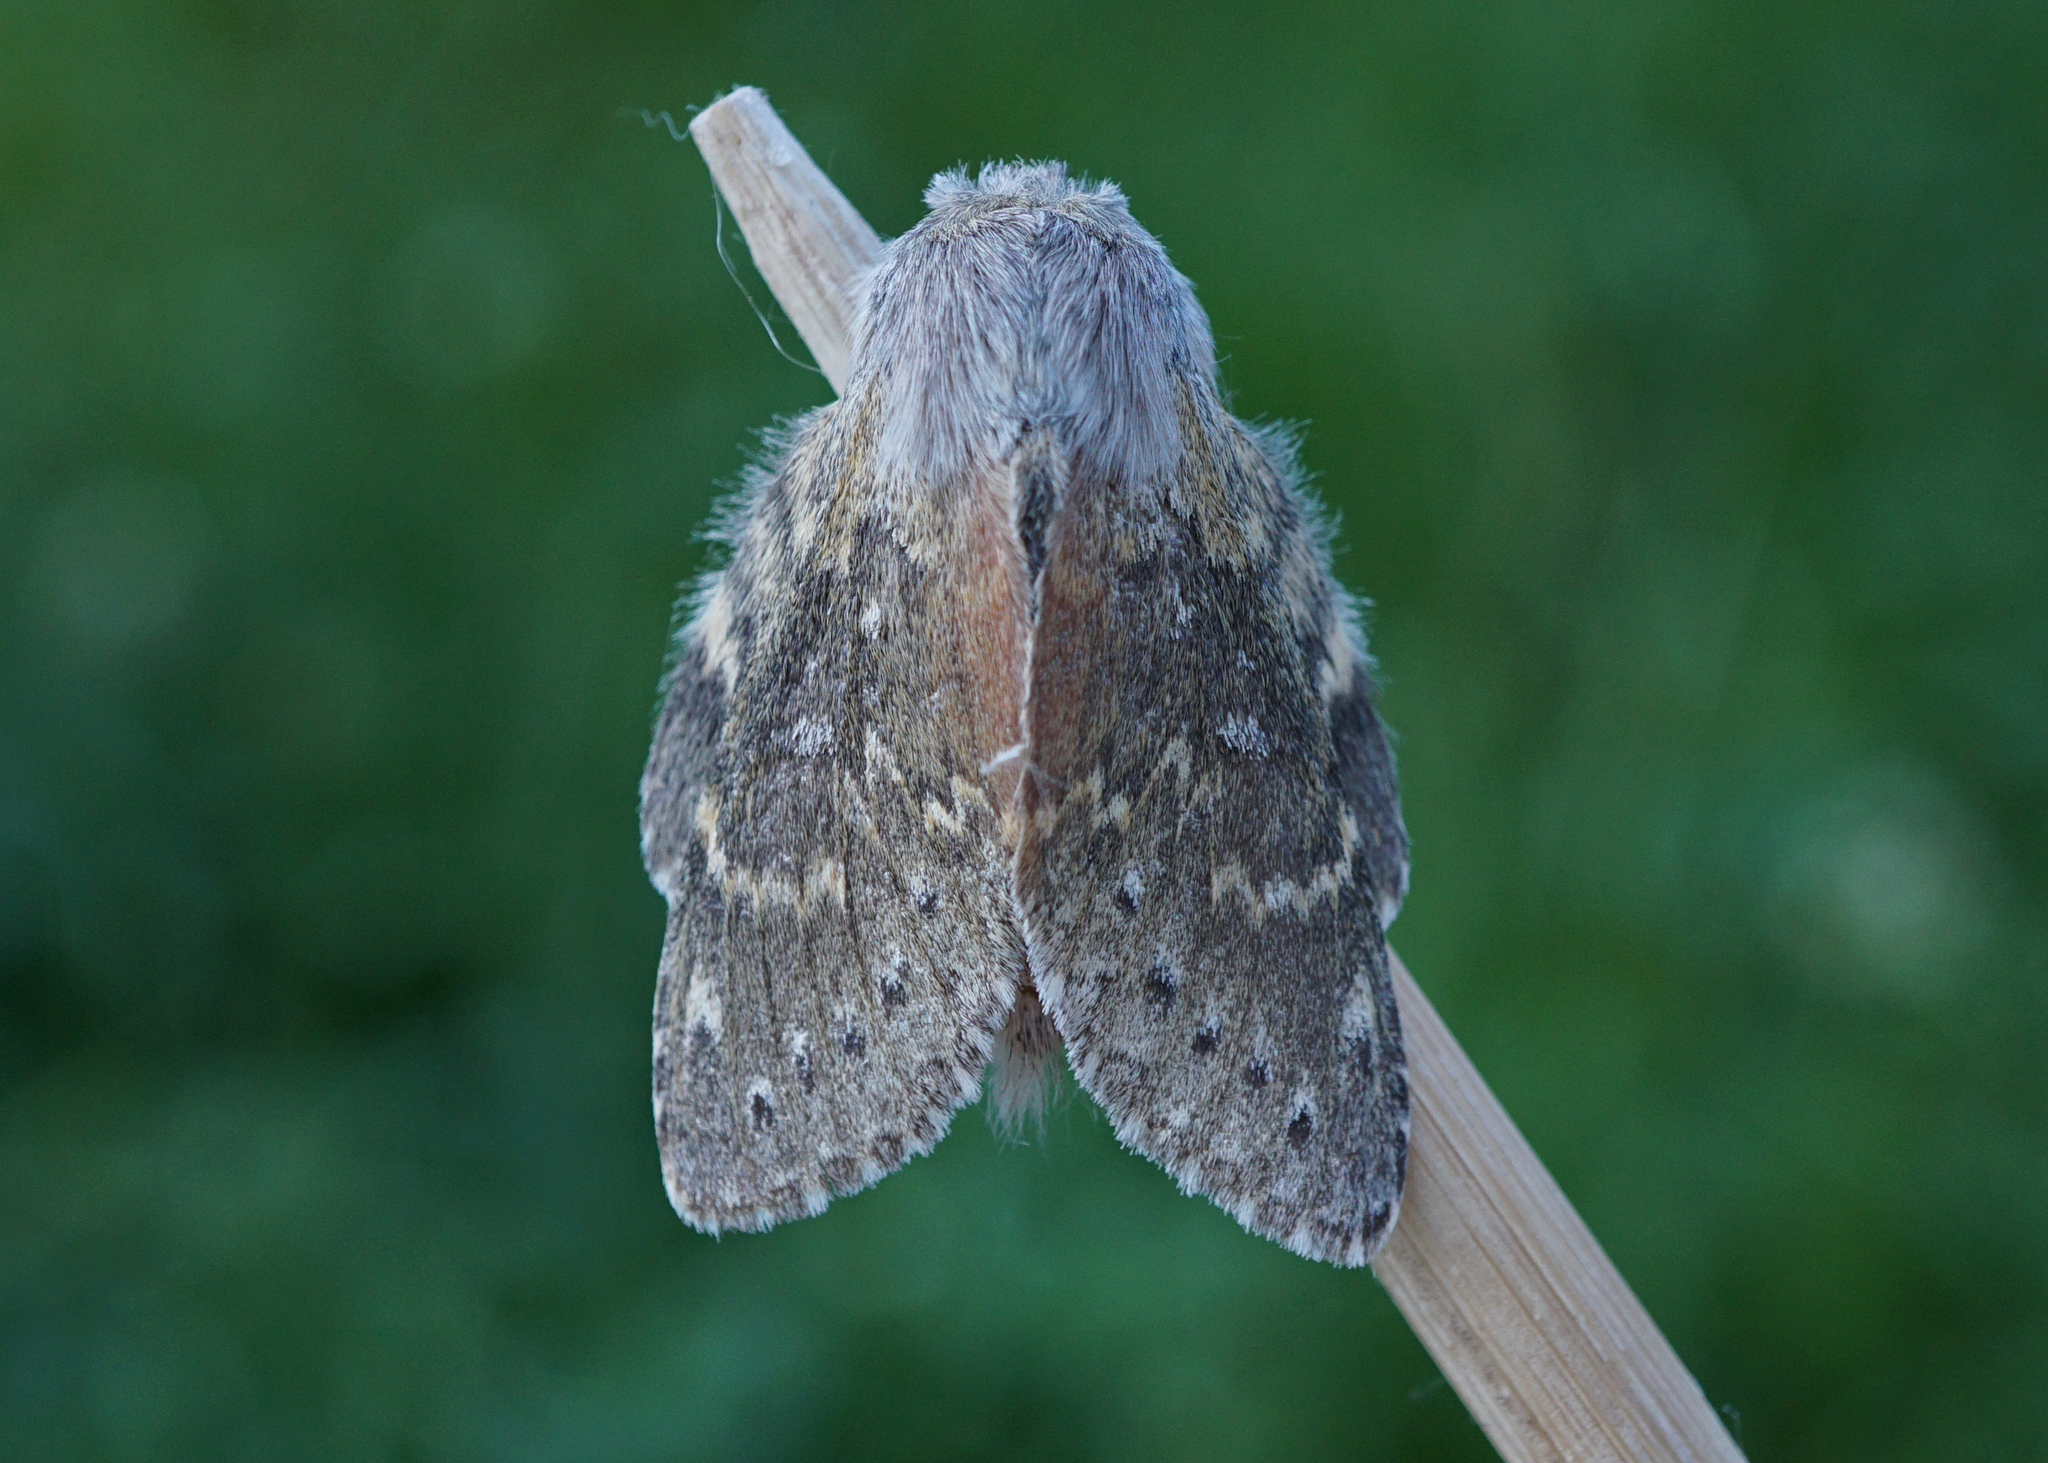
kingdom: Animalia
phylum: Arthropoda
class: Insecta
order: Lepidoptera
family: Notodontidae
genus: Stauropus
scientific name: Stauropus fagi
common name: Lobster moth
